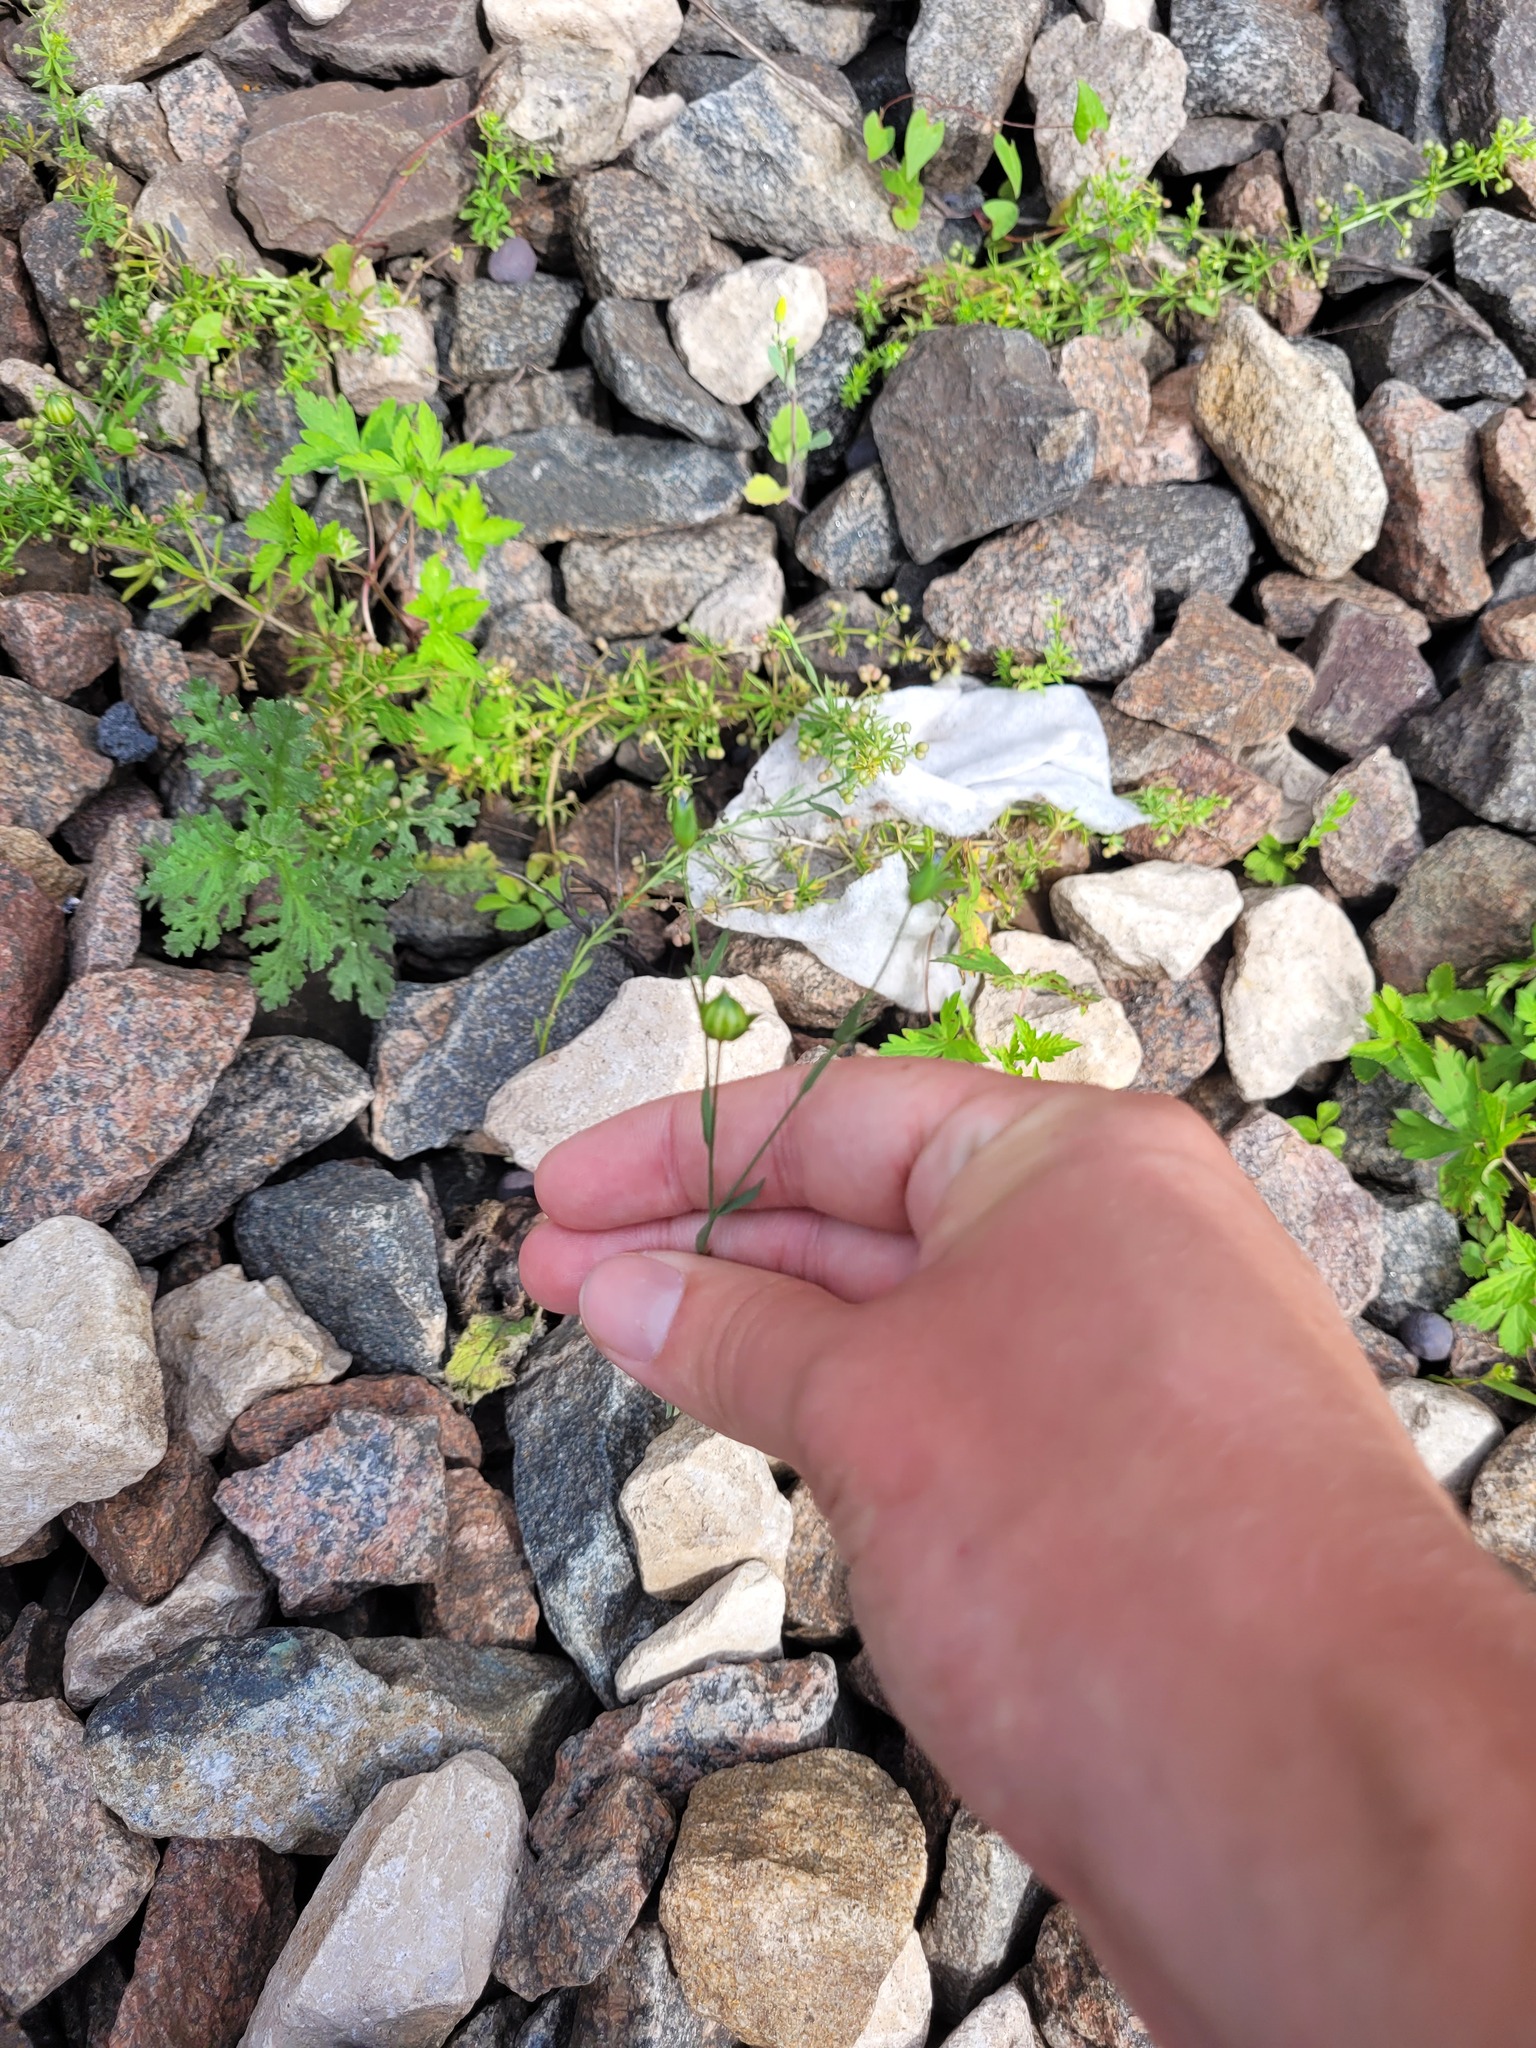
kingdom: Plantae
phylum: Tracheophyta
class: Magnoliopsida
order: Malpighiales
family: Linaceae
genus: Linum
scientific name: Linum usitatissimum
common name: Flax
